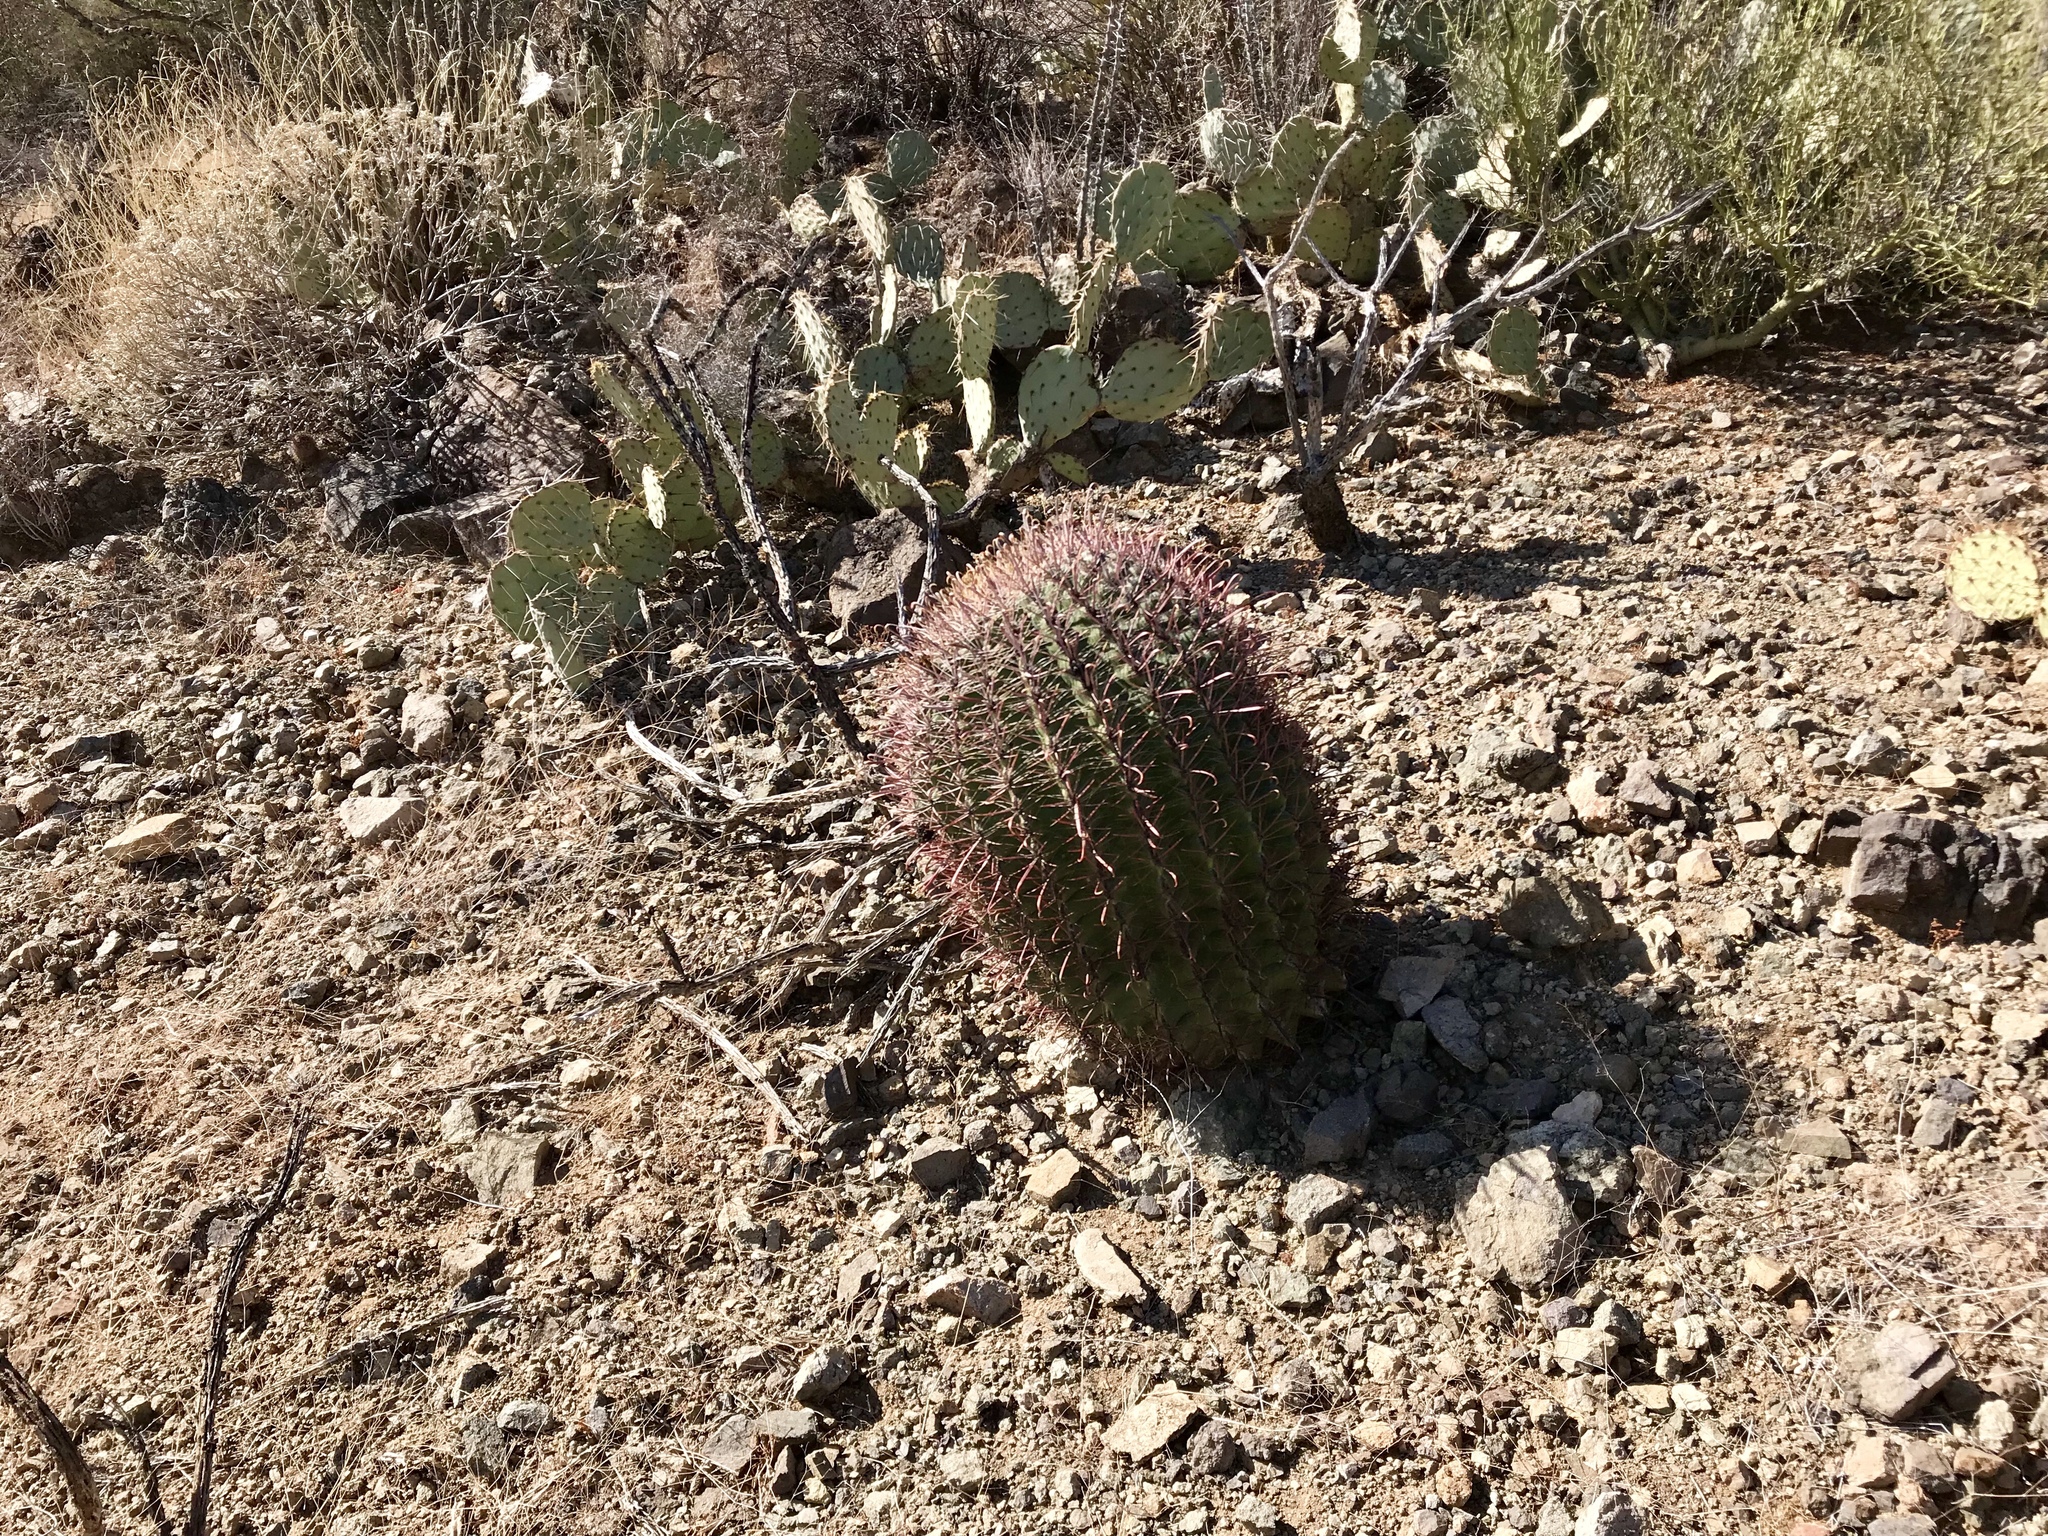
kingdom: Plantae
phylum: Tracheophyta
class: Magnoliopsida
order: Caryophyllales
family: Cactaceae
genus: Ferocactus
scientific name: Ferocactus wislizeni
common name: Candy barrel cactus
